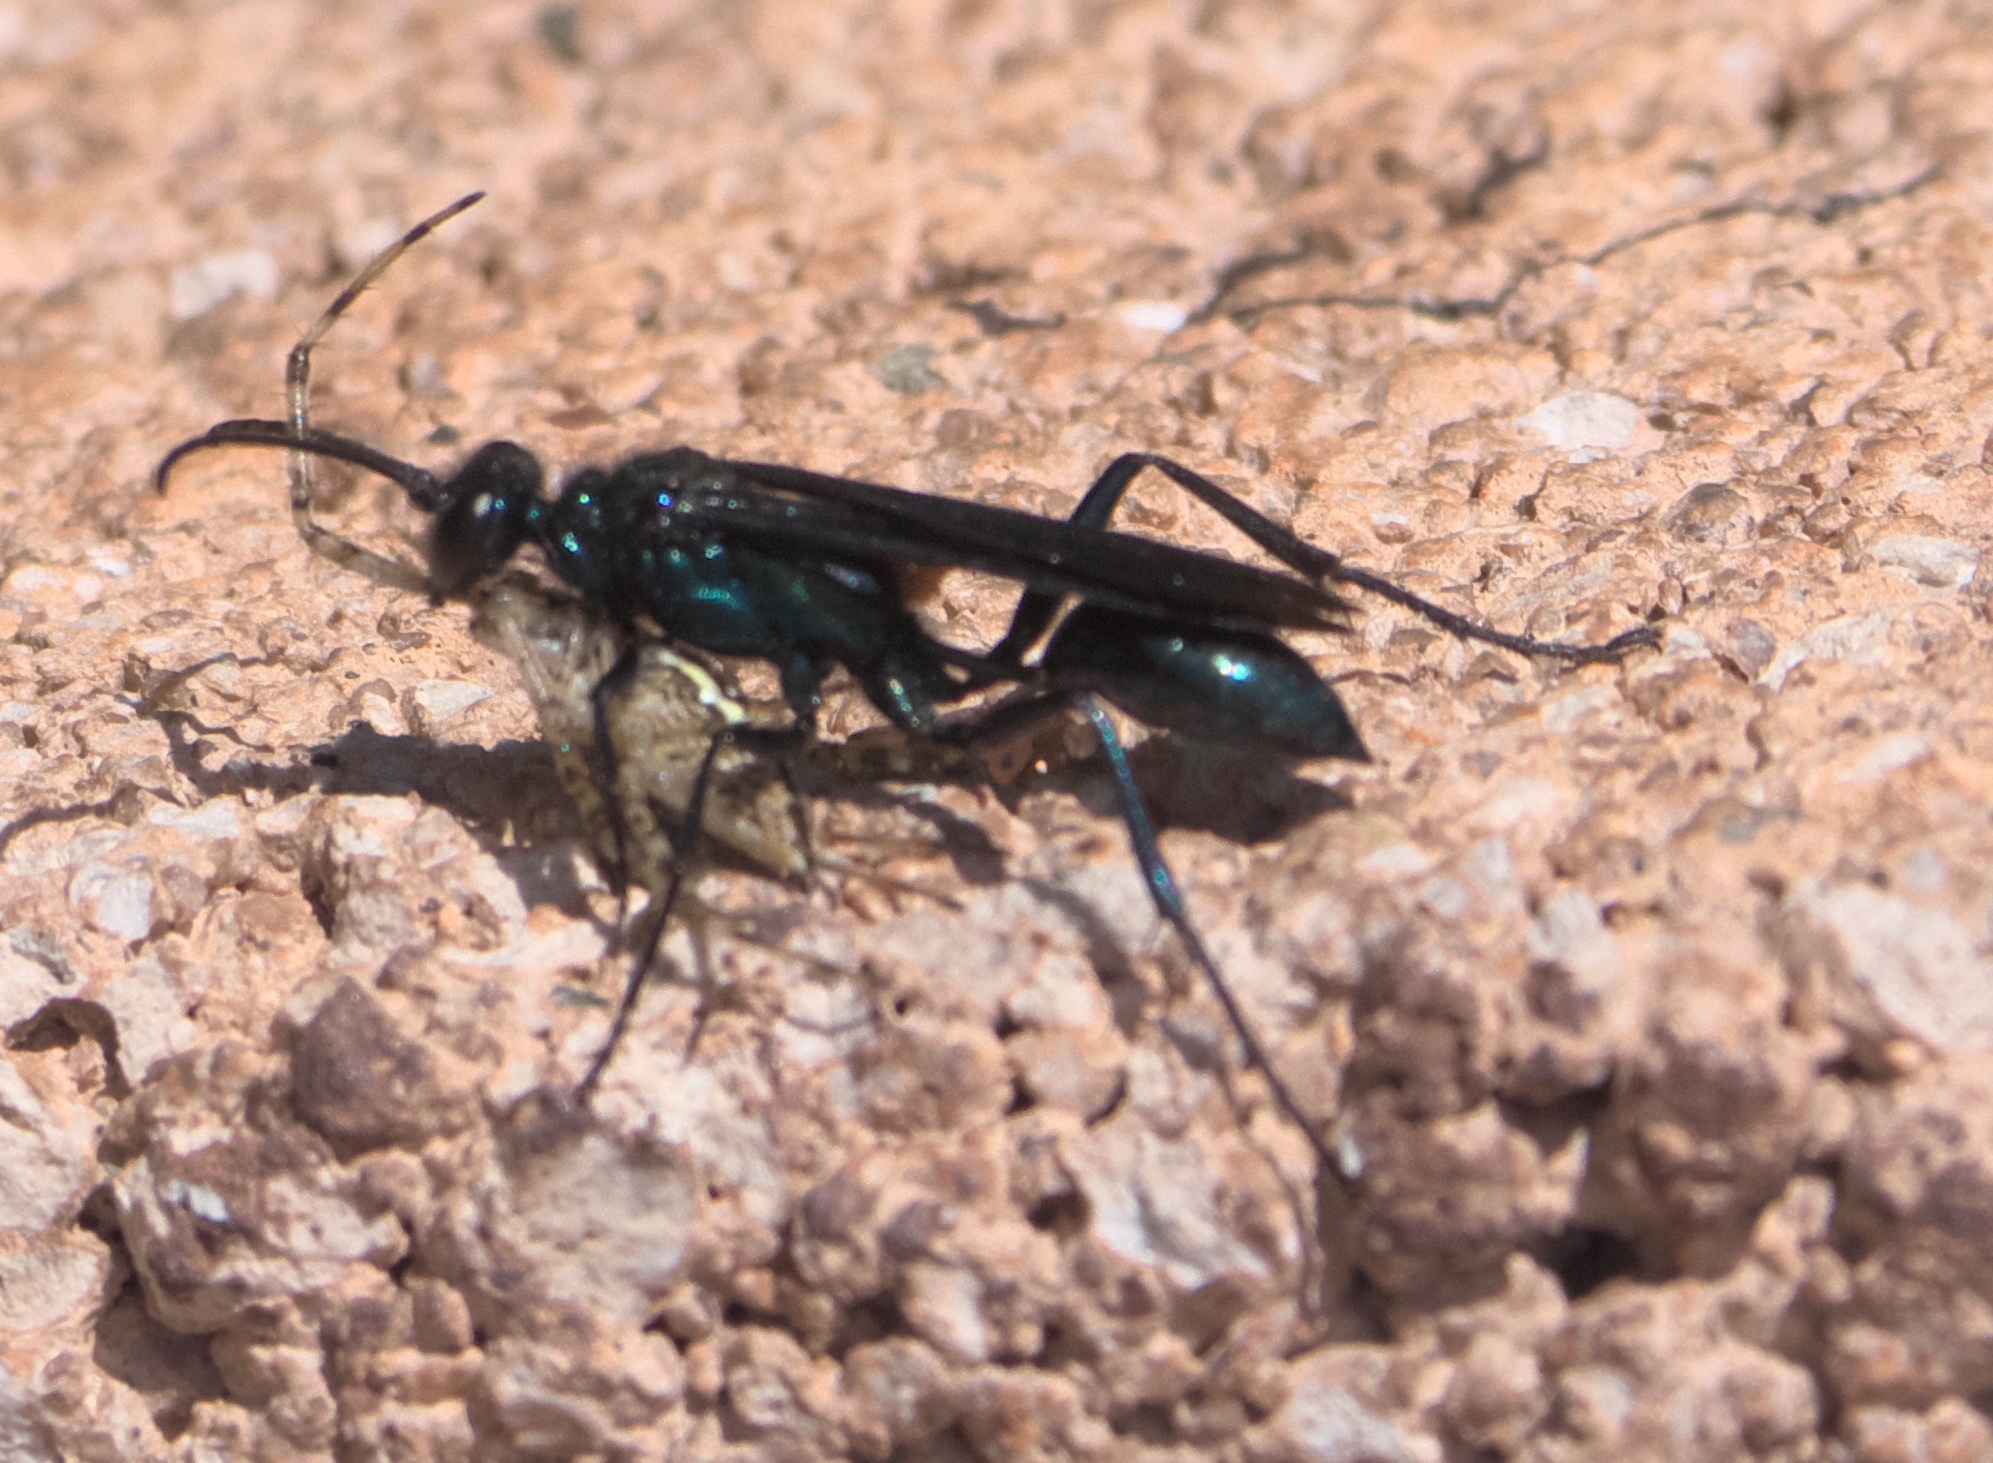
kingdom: Animalia
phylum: Arthropoda
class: Insecta
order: Hymenoptera
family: Sphecidae
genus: Chalybion
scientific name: Chalybion californicum
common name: Mud dauber
